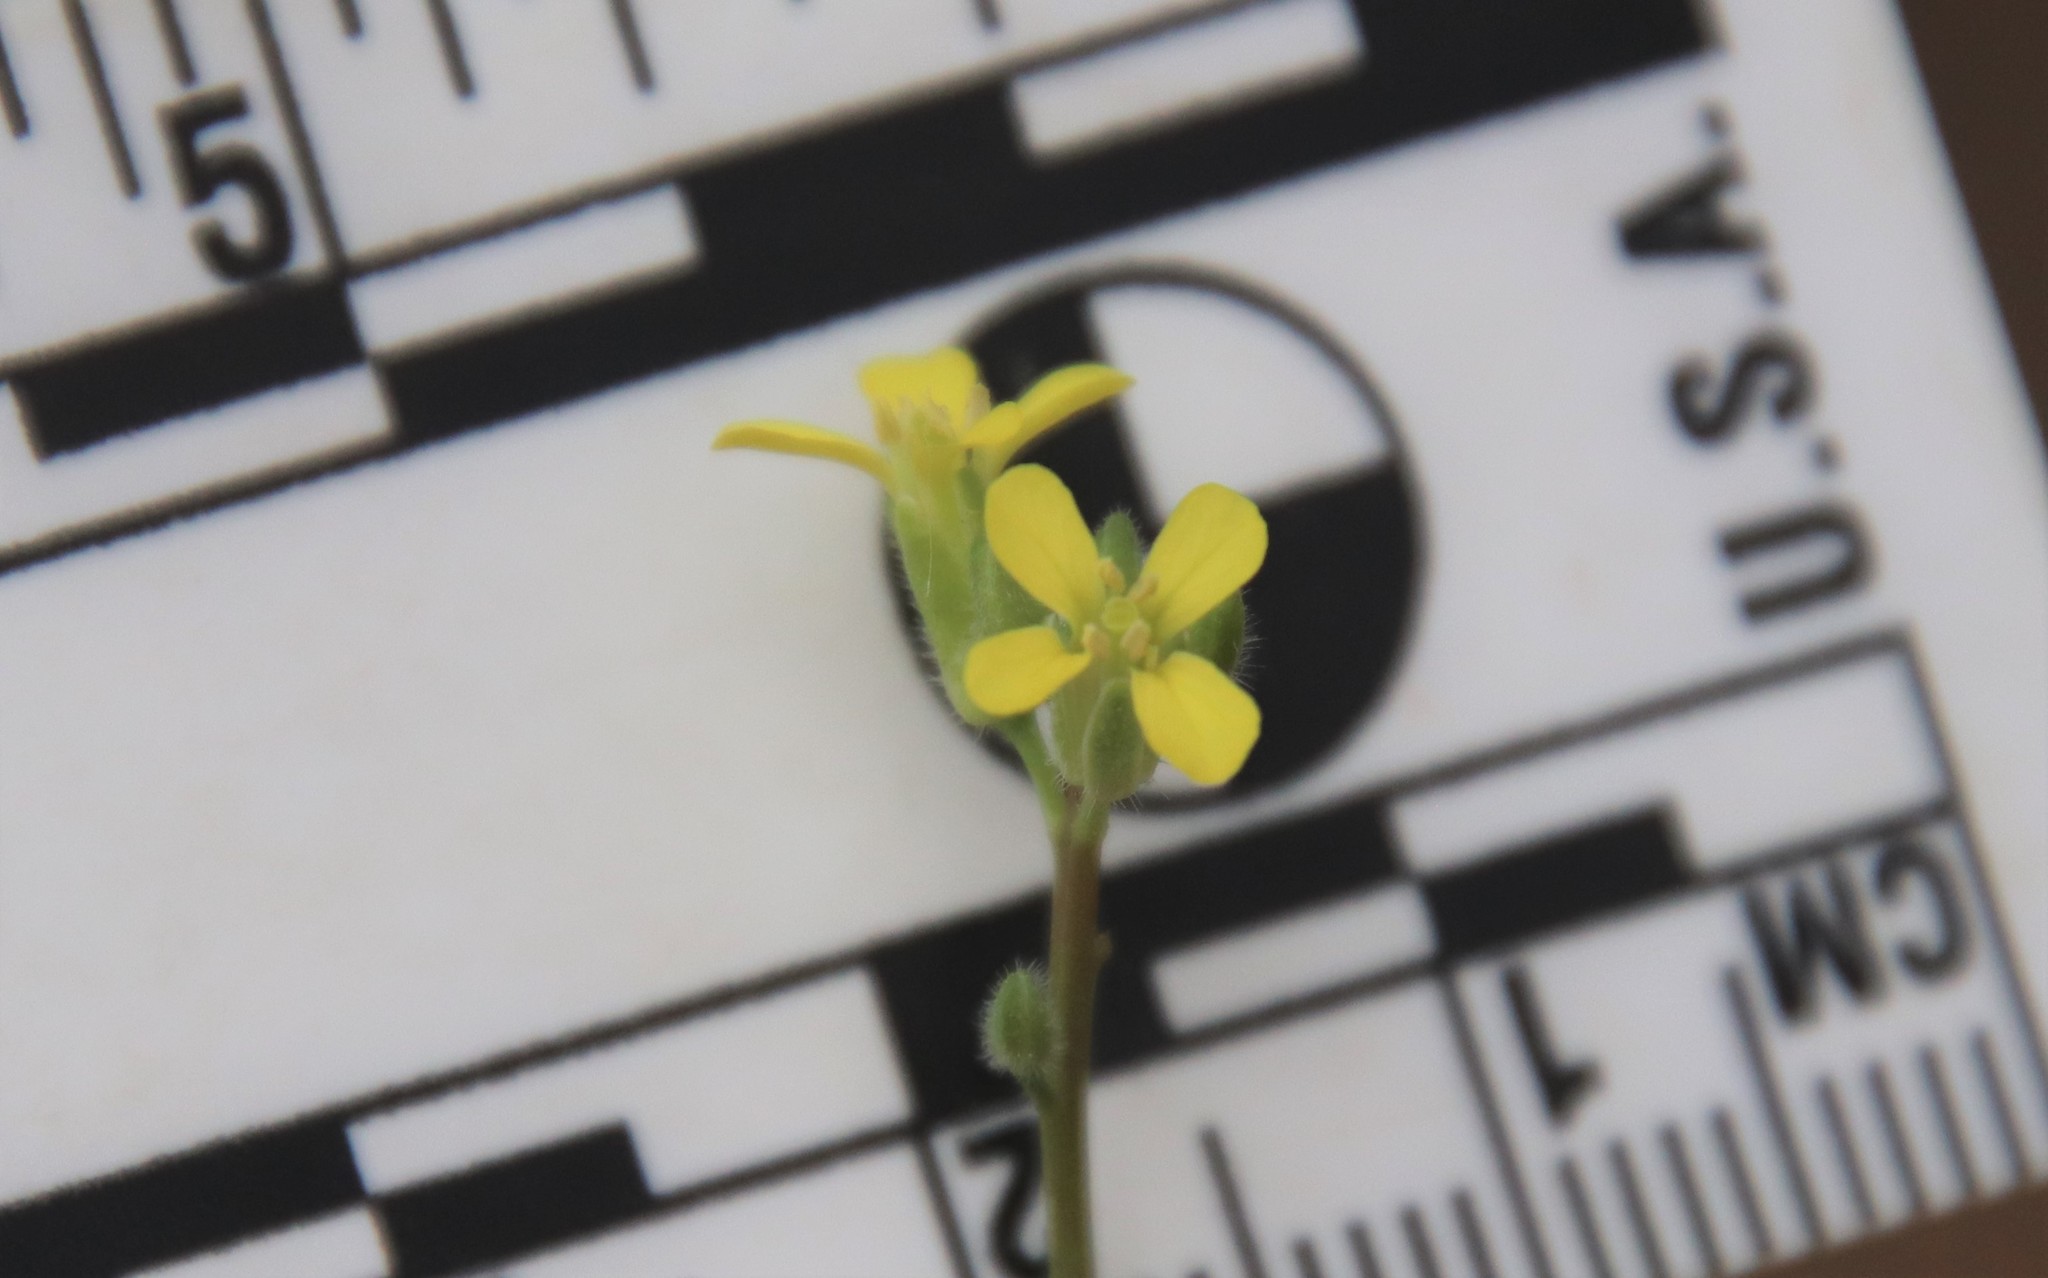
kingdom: Plantae
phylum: Tracheophyta
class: Magnoliopsida
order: Brassicales
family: Brassicaceae
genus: Sisymbrium
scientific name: Sisymbrium orientale
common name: Eastern rocket
